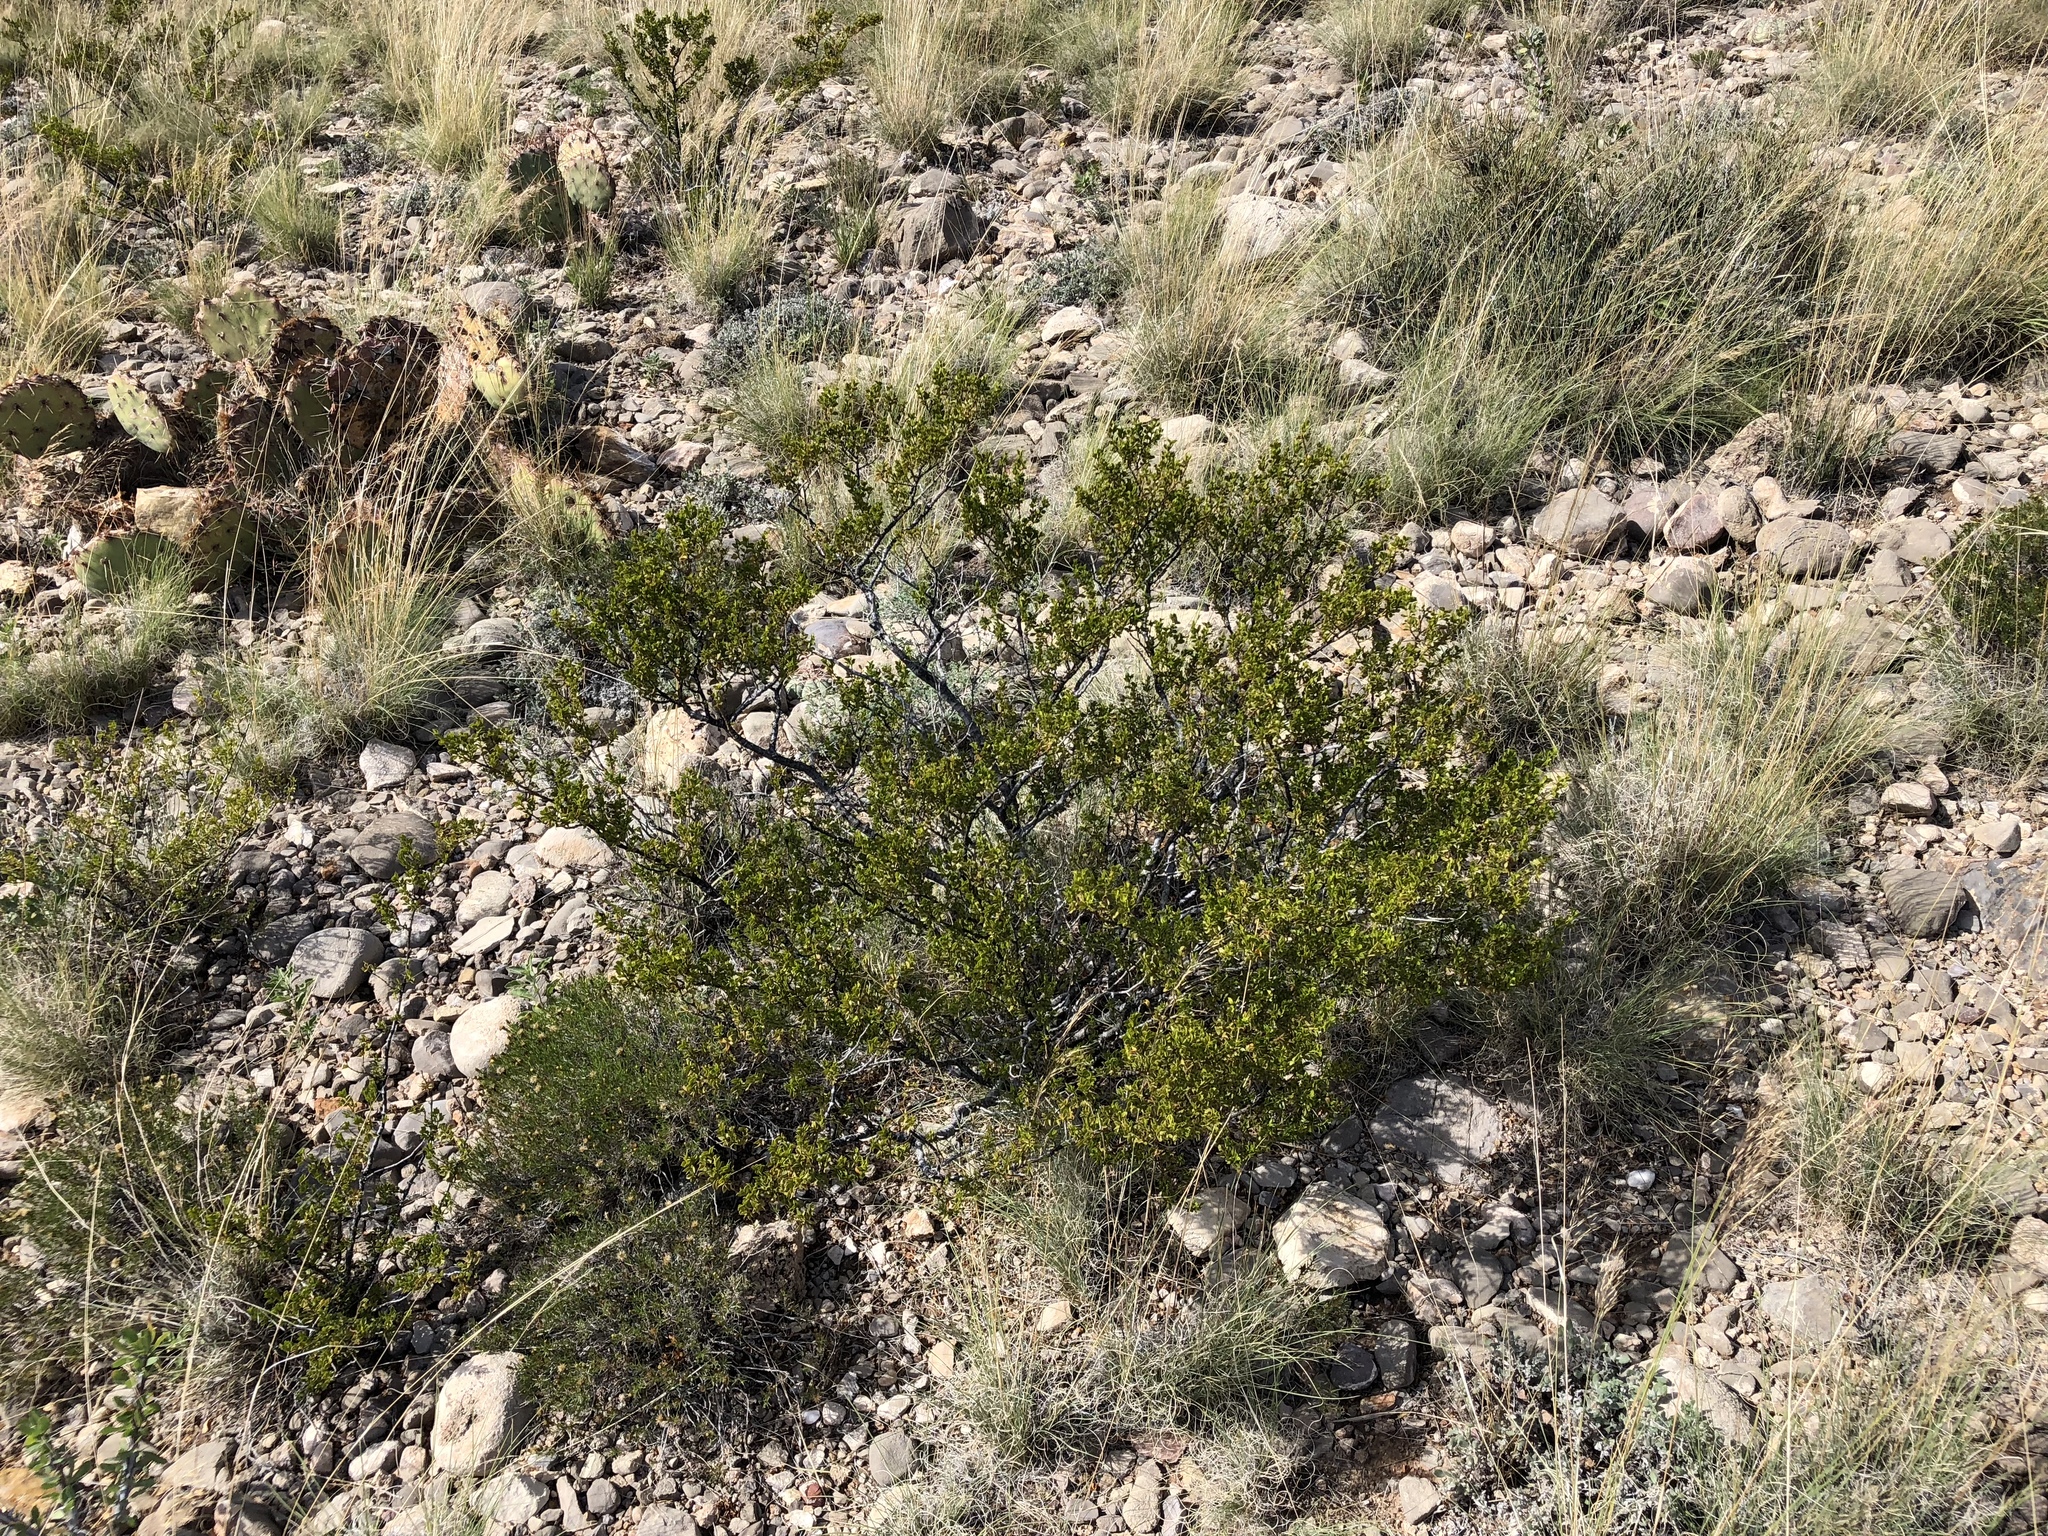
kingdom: Plantae
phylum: Tracheophyta
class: Magnoliopsida
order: Zygophyllales
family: Zygophyllaceae
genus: Larrea
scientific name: Larrea tridentata
